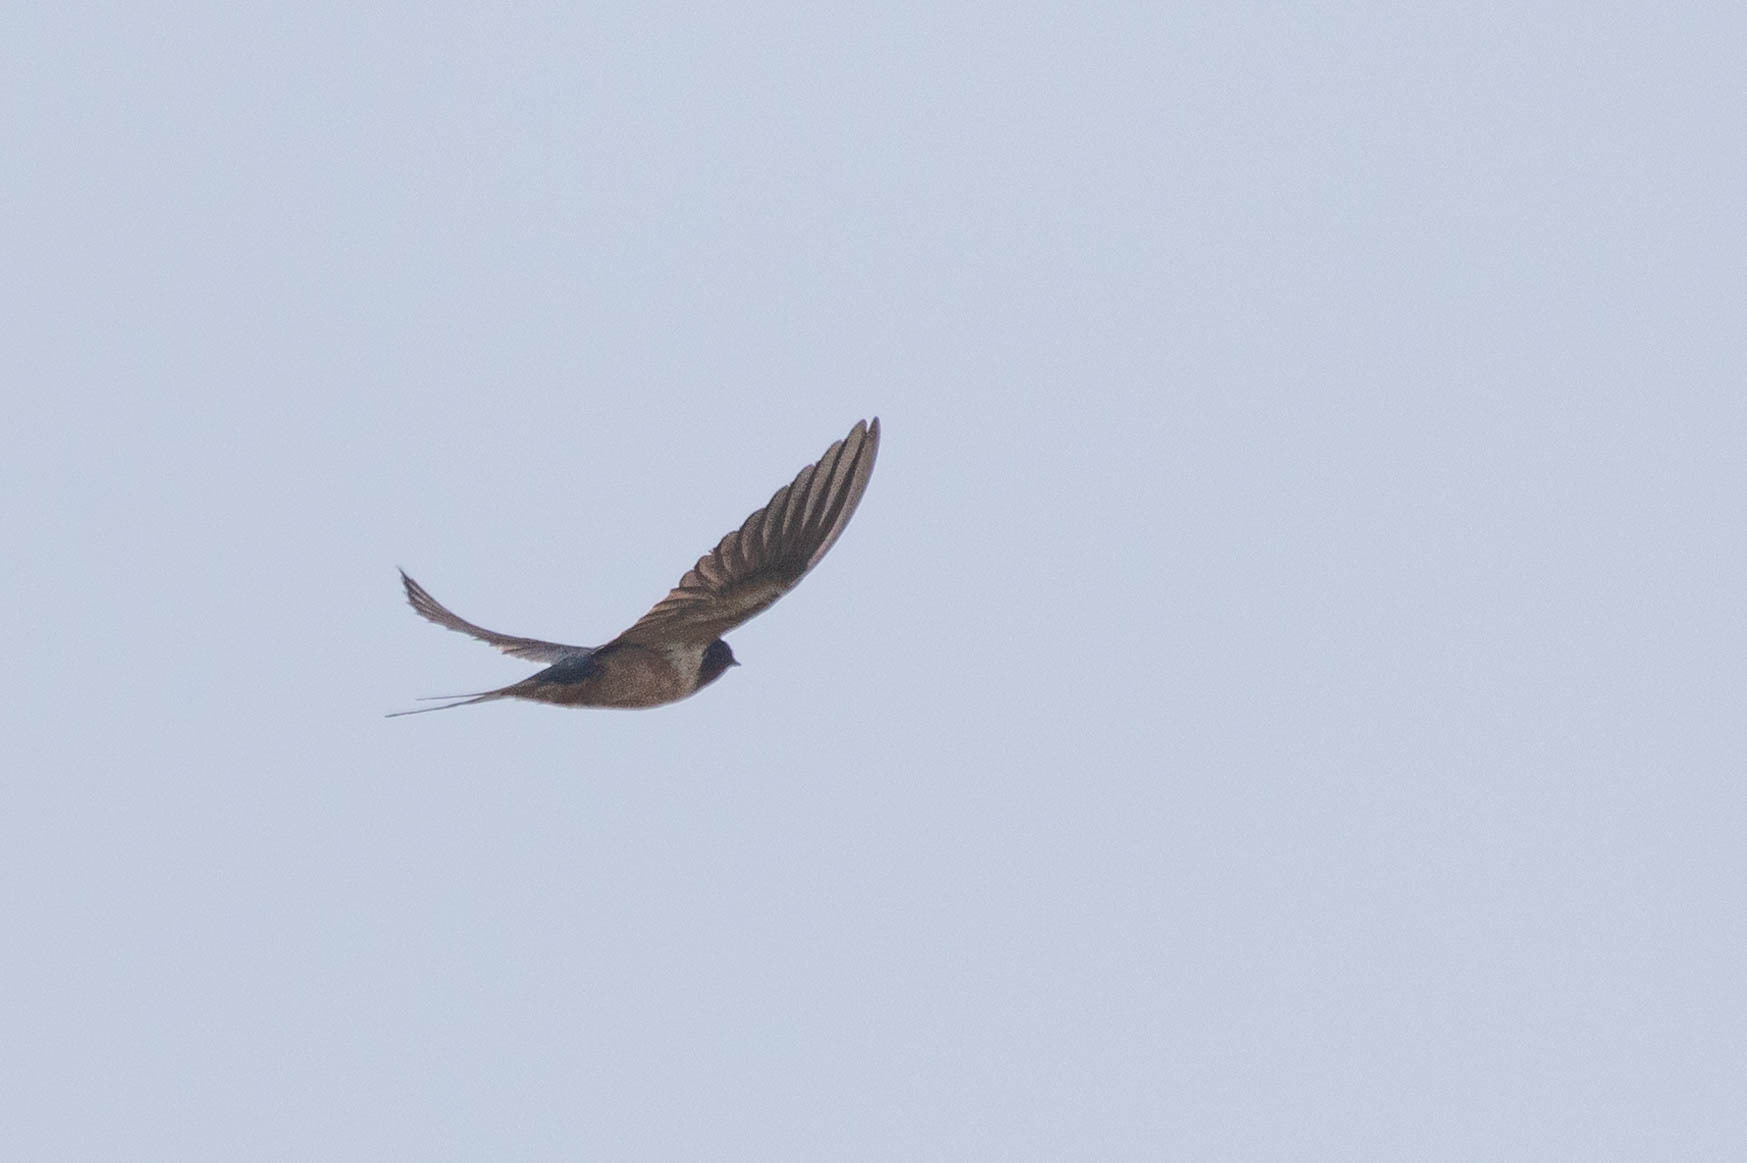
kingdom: Animalia
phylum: Chordata
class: Aves
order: Passeriformes
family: Hirundinidae
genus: Hirundo
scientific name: Hirundo rustica
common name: Barn swallow
